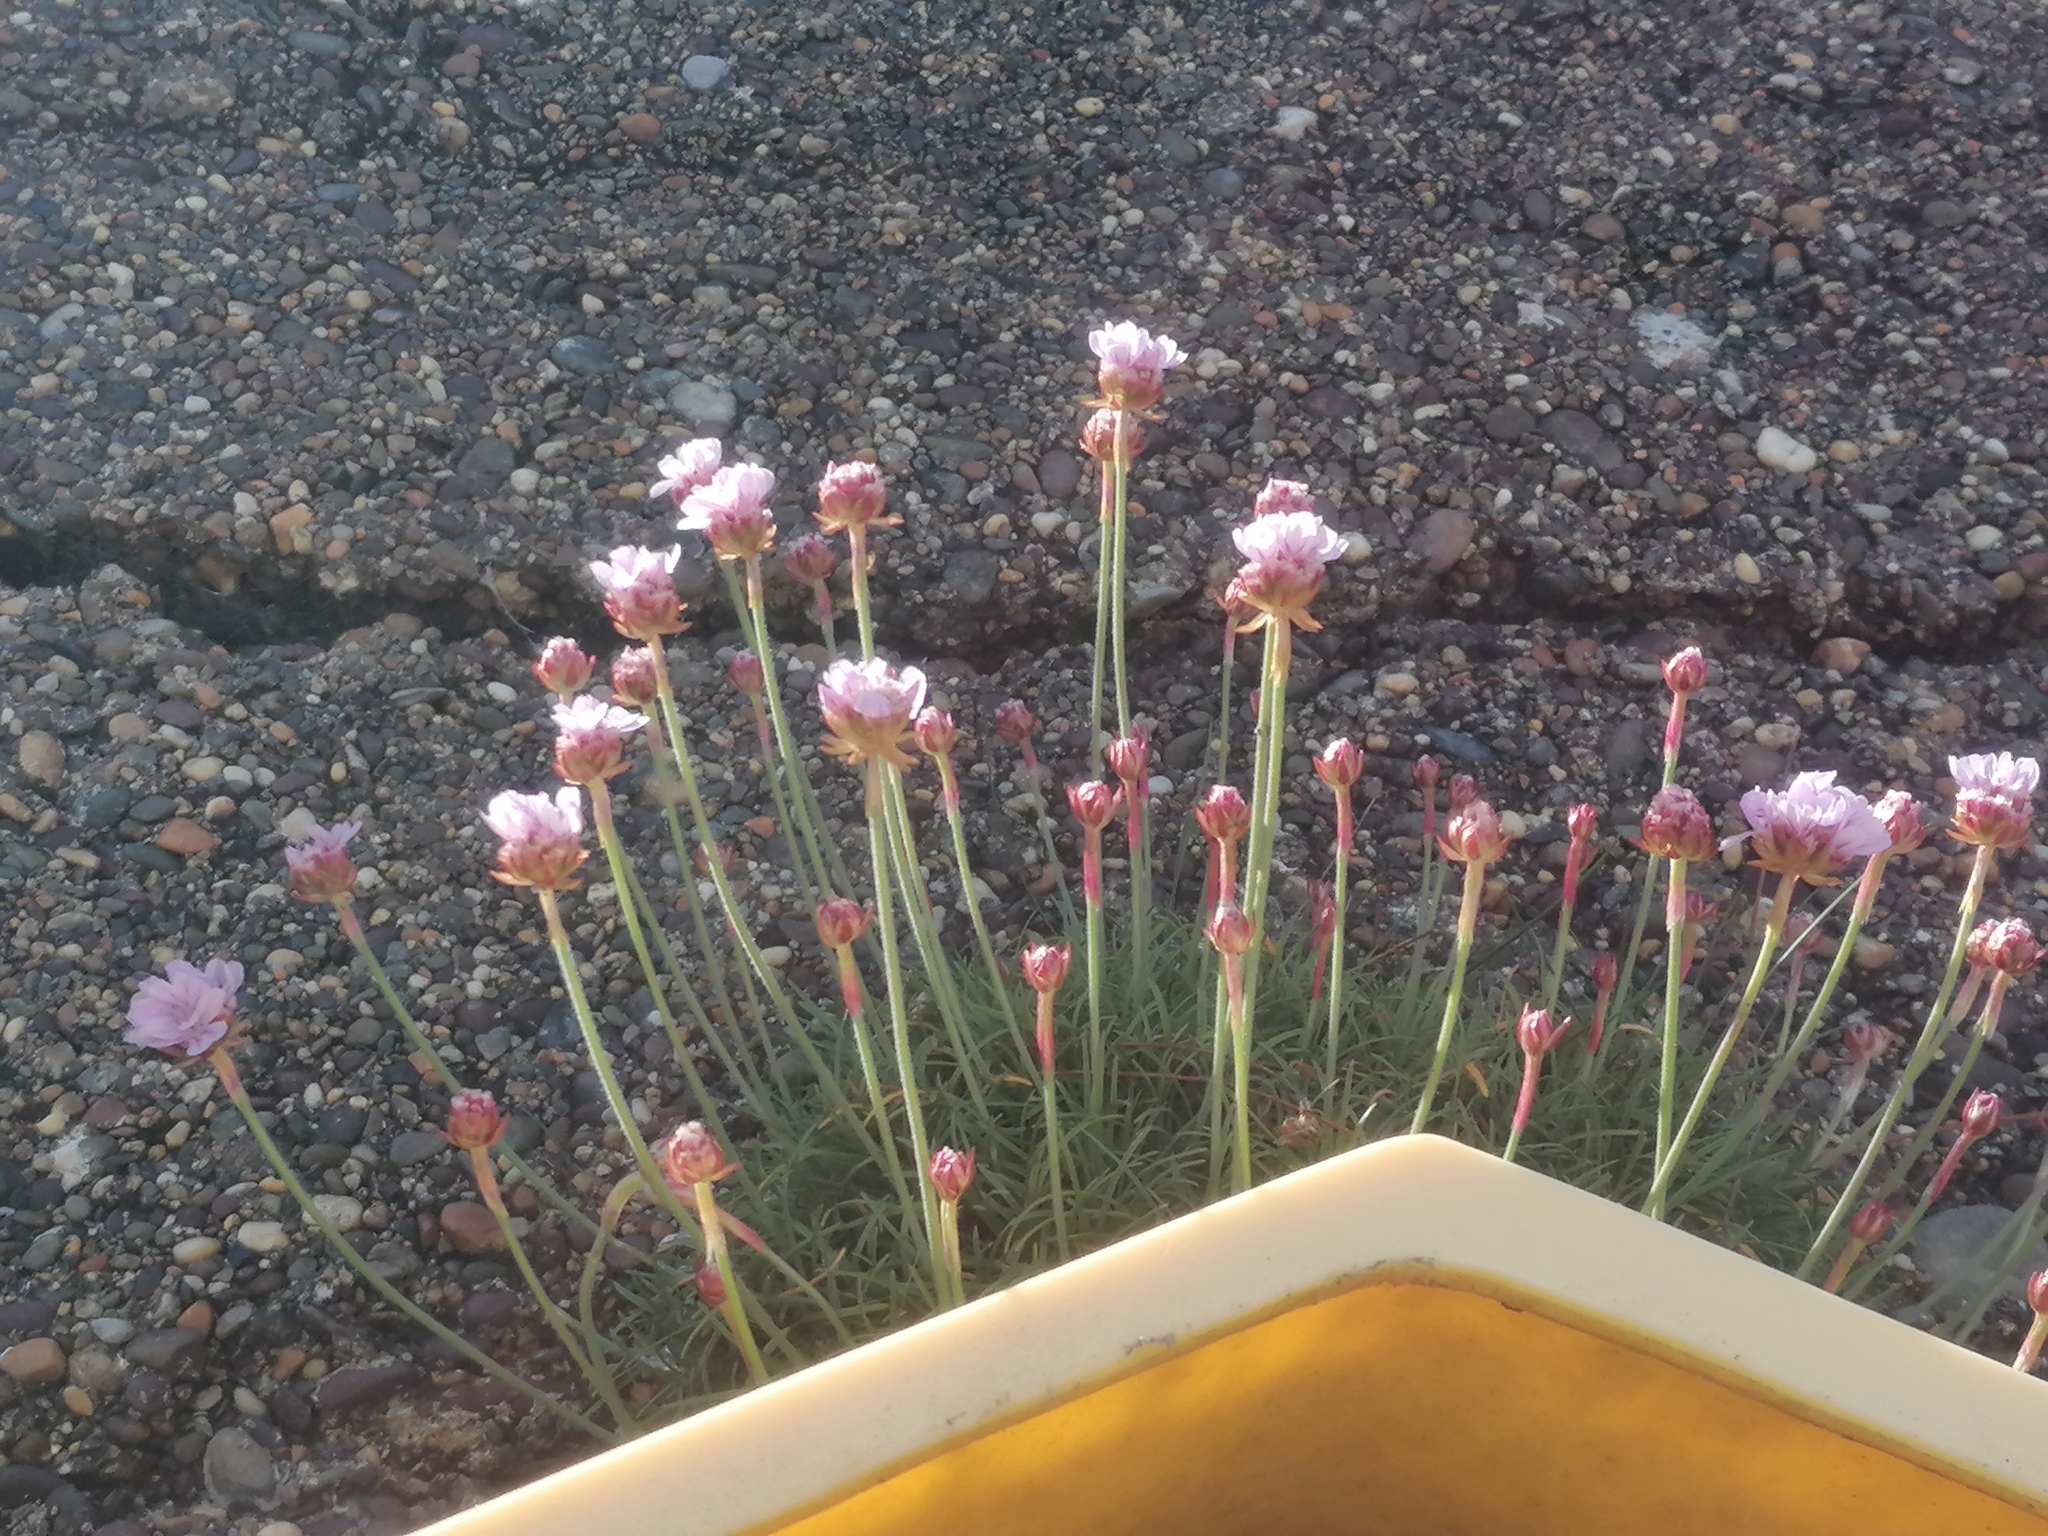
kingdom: Plantae
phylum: Tracheophyta
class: Magnoliopsida
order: Caryophyllales
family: Plumbaginaceae
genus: Armeria
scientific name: Armeria maritima
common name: Thrift
